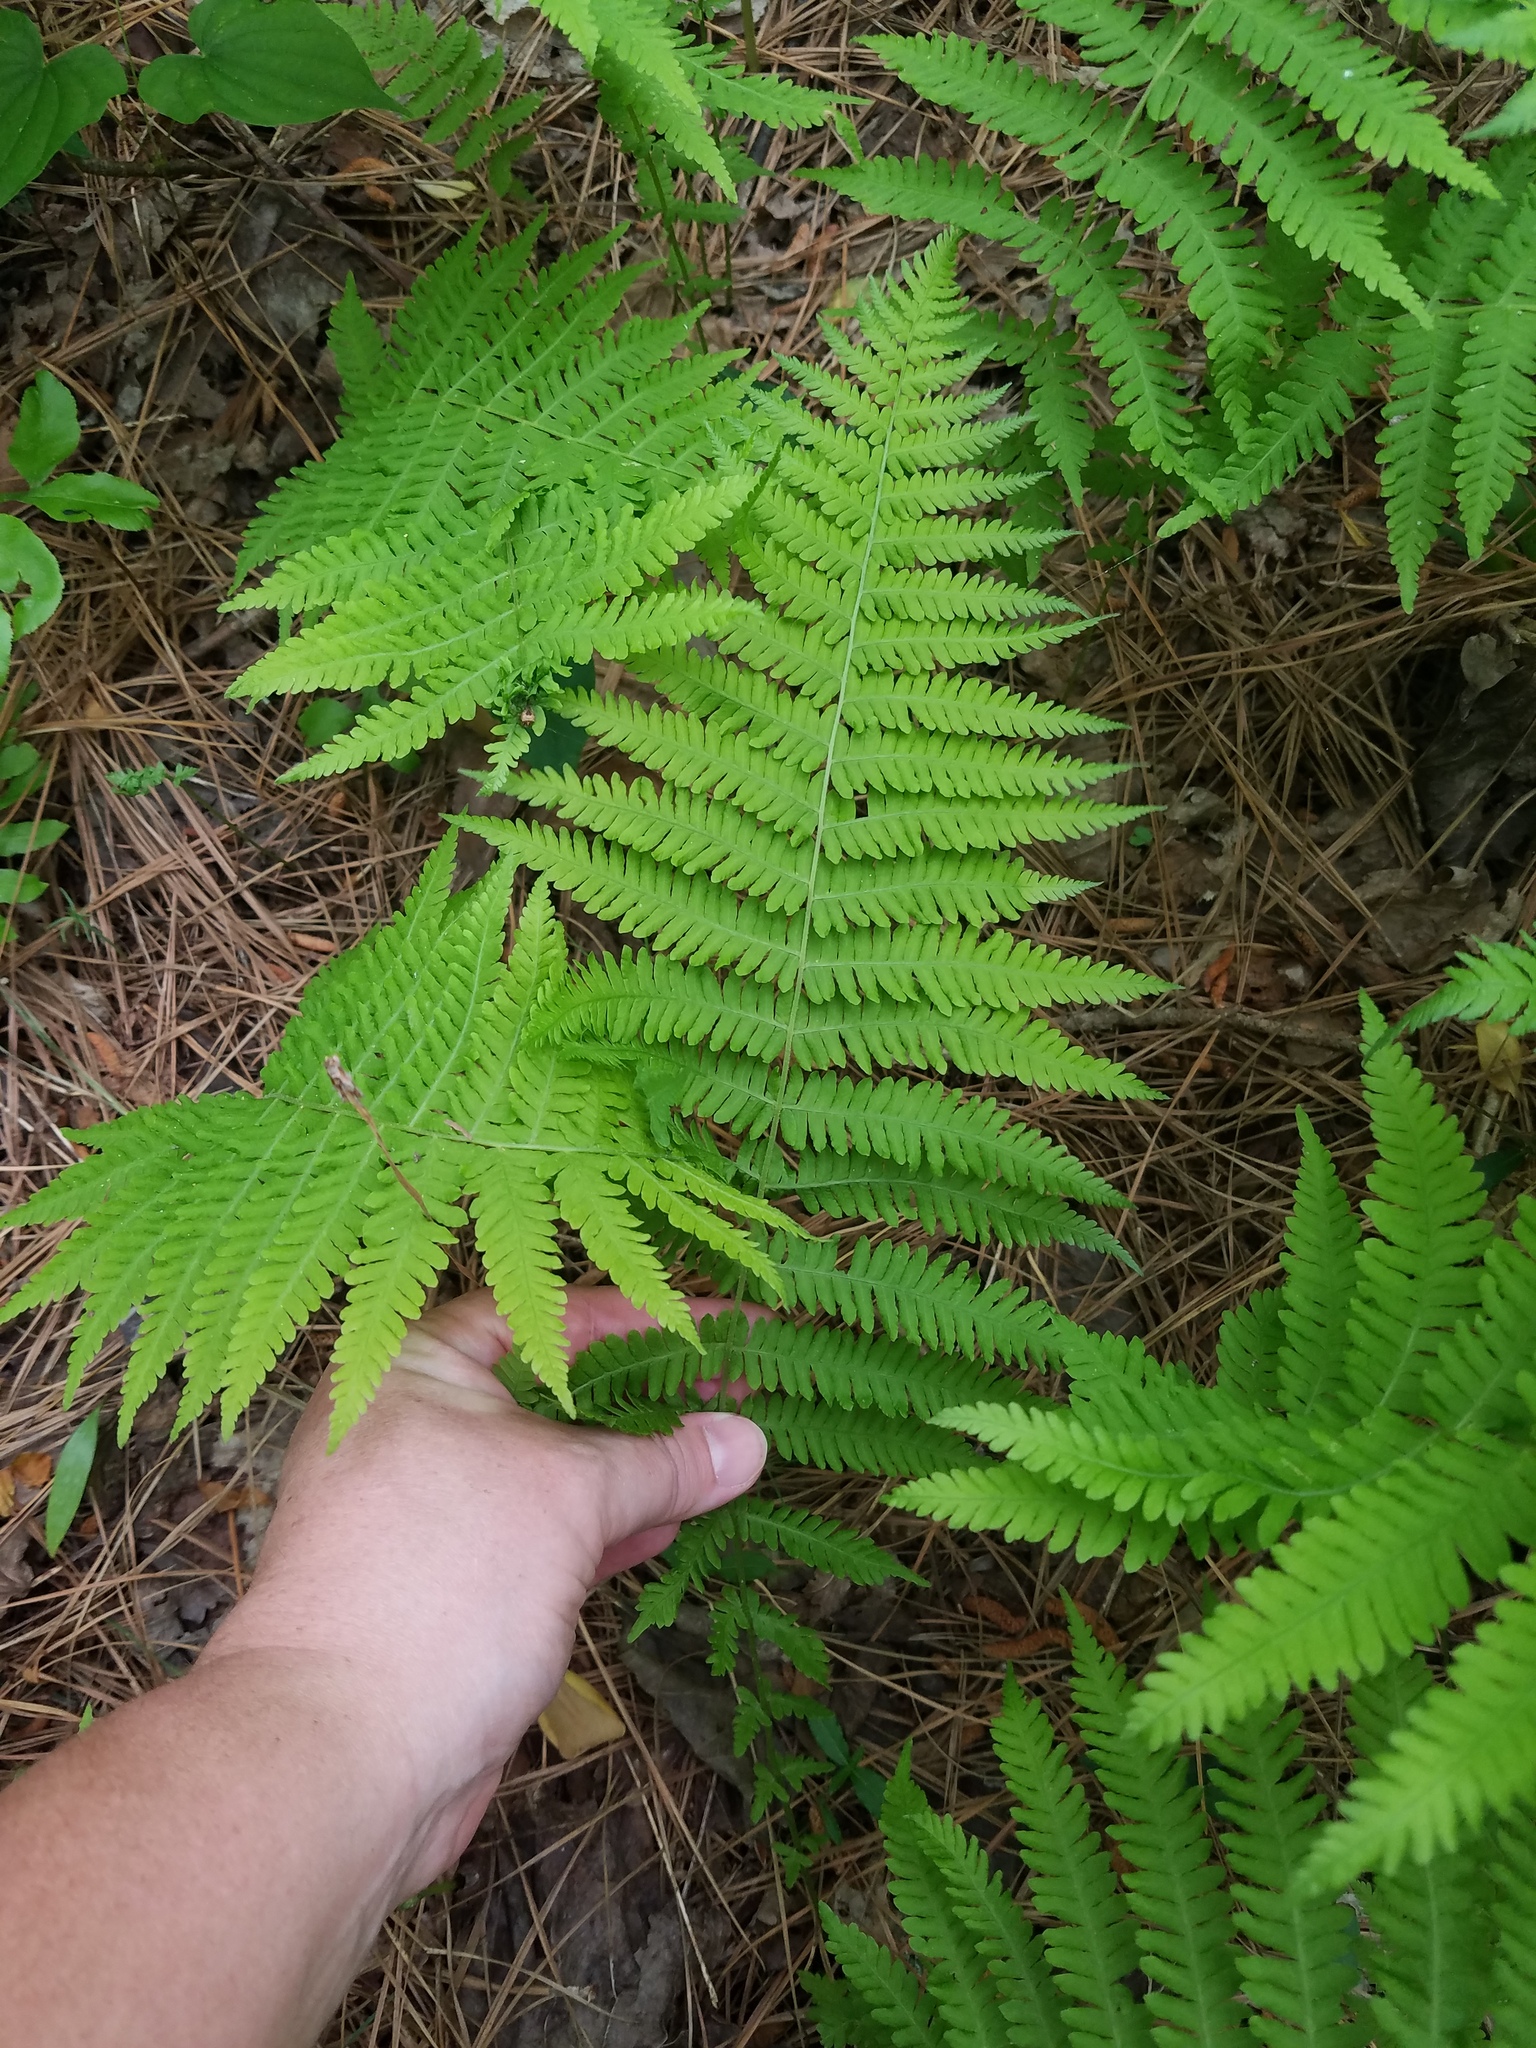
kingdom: Plantae
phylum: Tracheophyta
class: Polypodiopsida
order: Polypodiales
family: Thelypteridaceae
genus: Amauropelta
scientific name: Amauropelta noveboracensis
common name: New york fern
